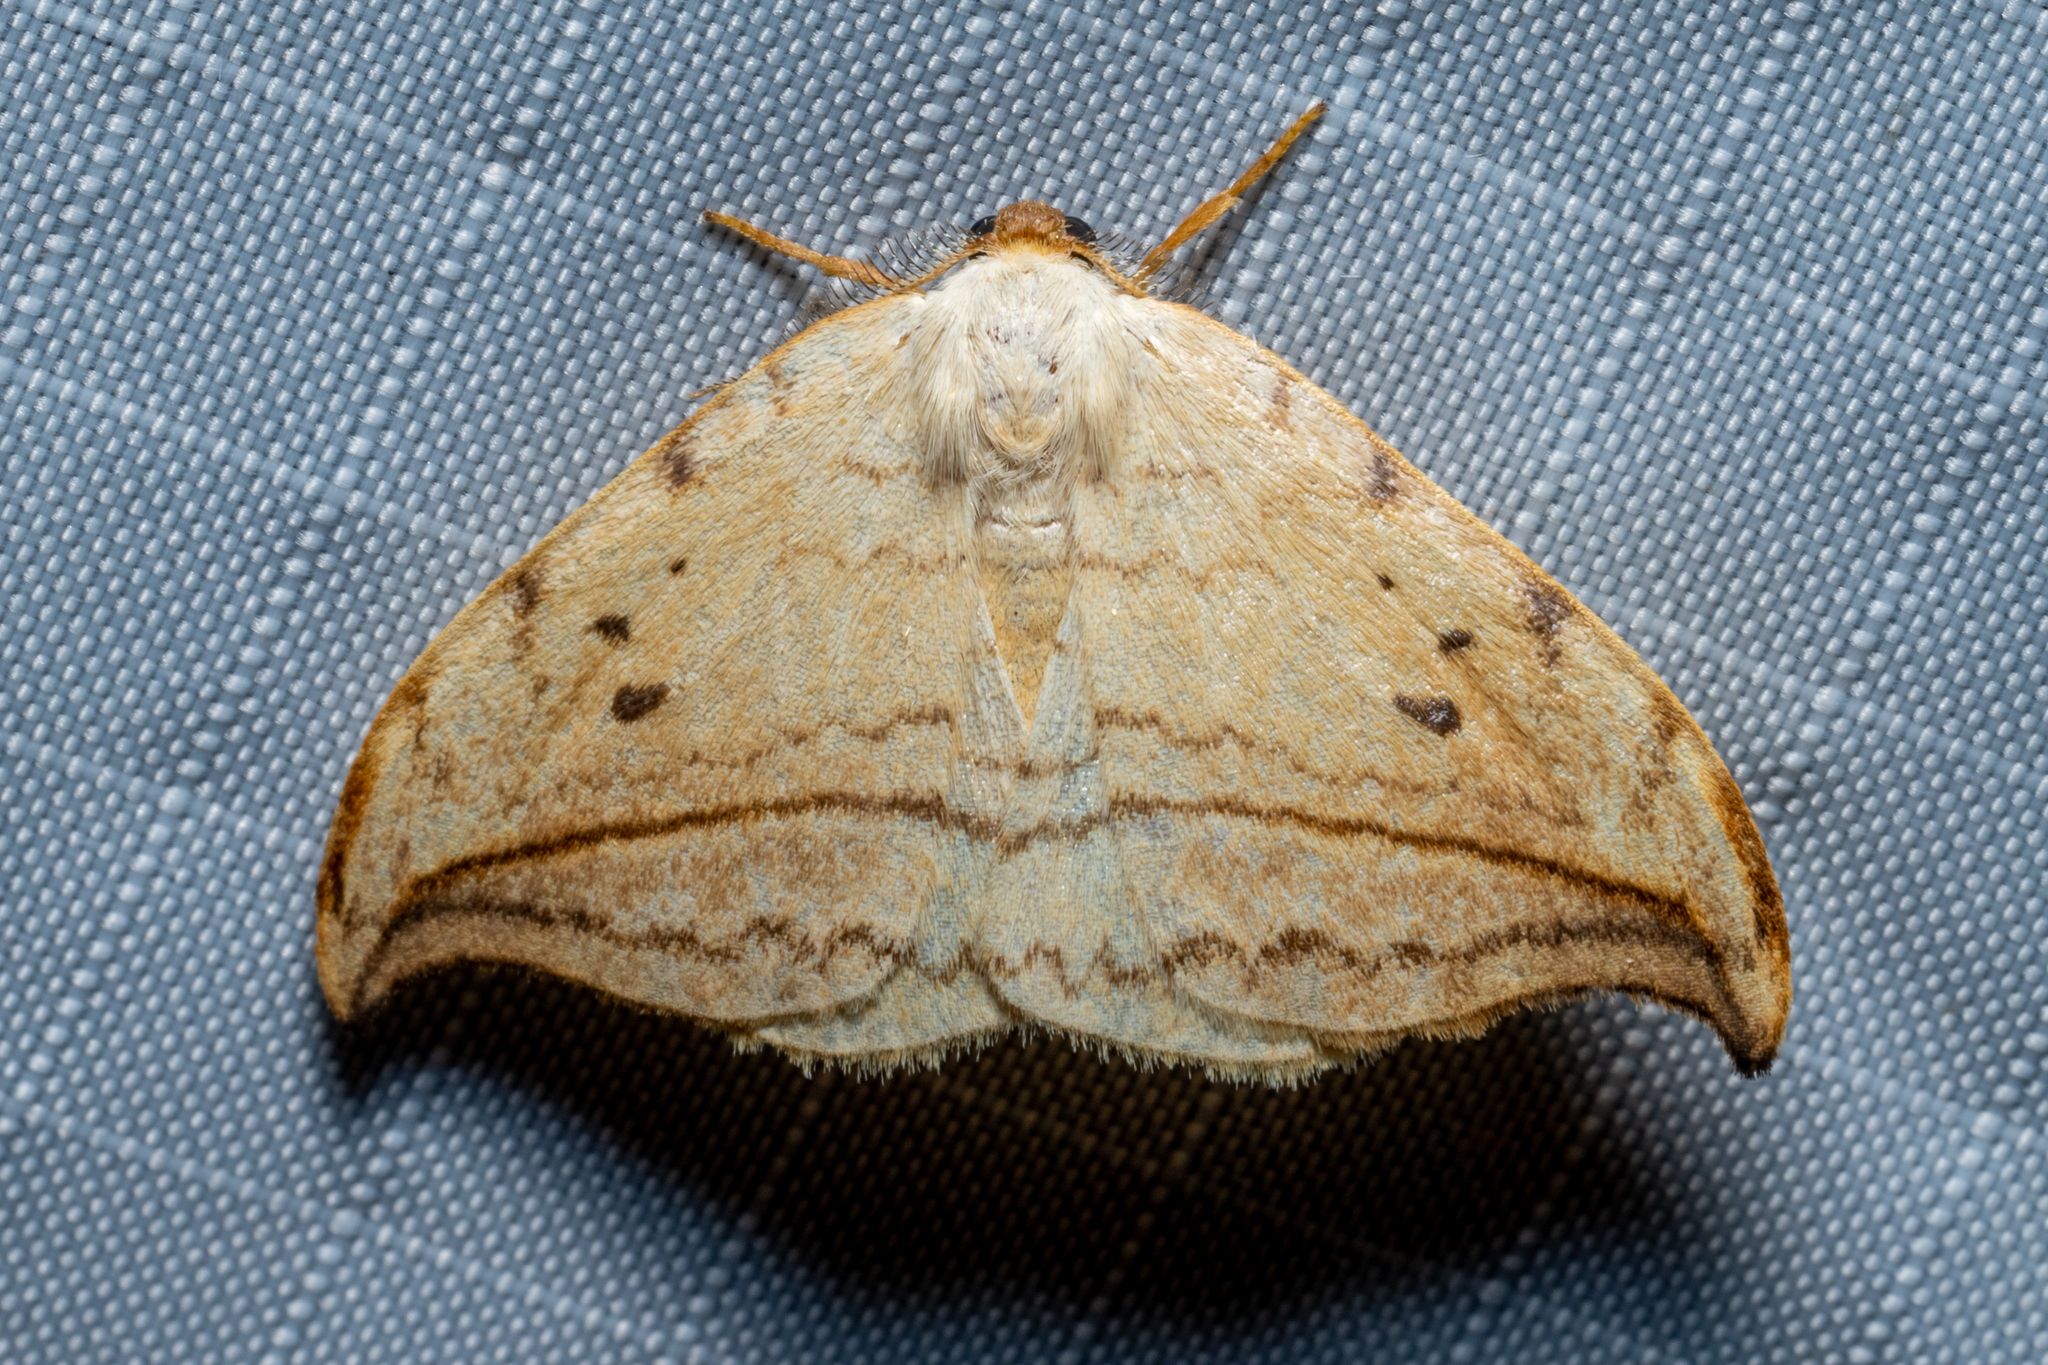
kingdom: Animalia
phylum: Arthropoda
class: Insecta
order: Lepidoptera
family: Drepanidae
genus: Drepana
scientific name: Drepana arcuata
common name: Arched hooktip moth
